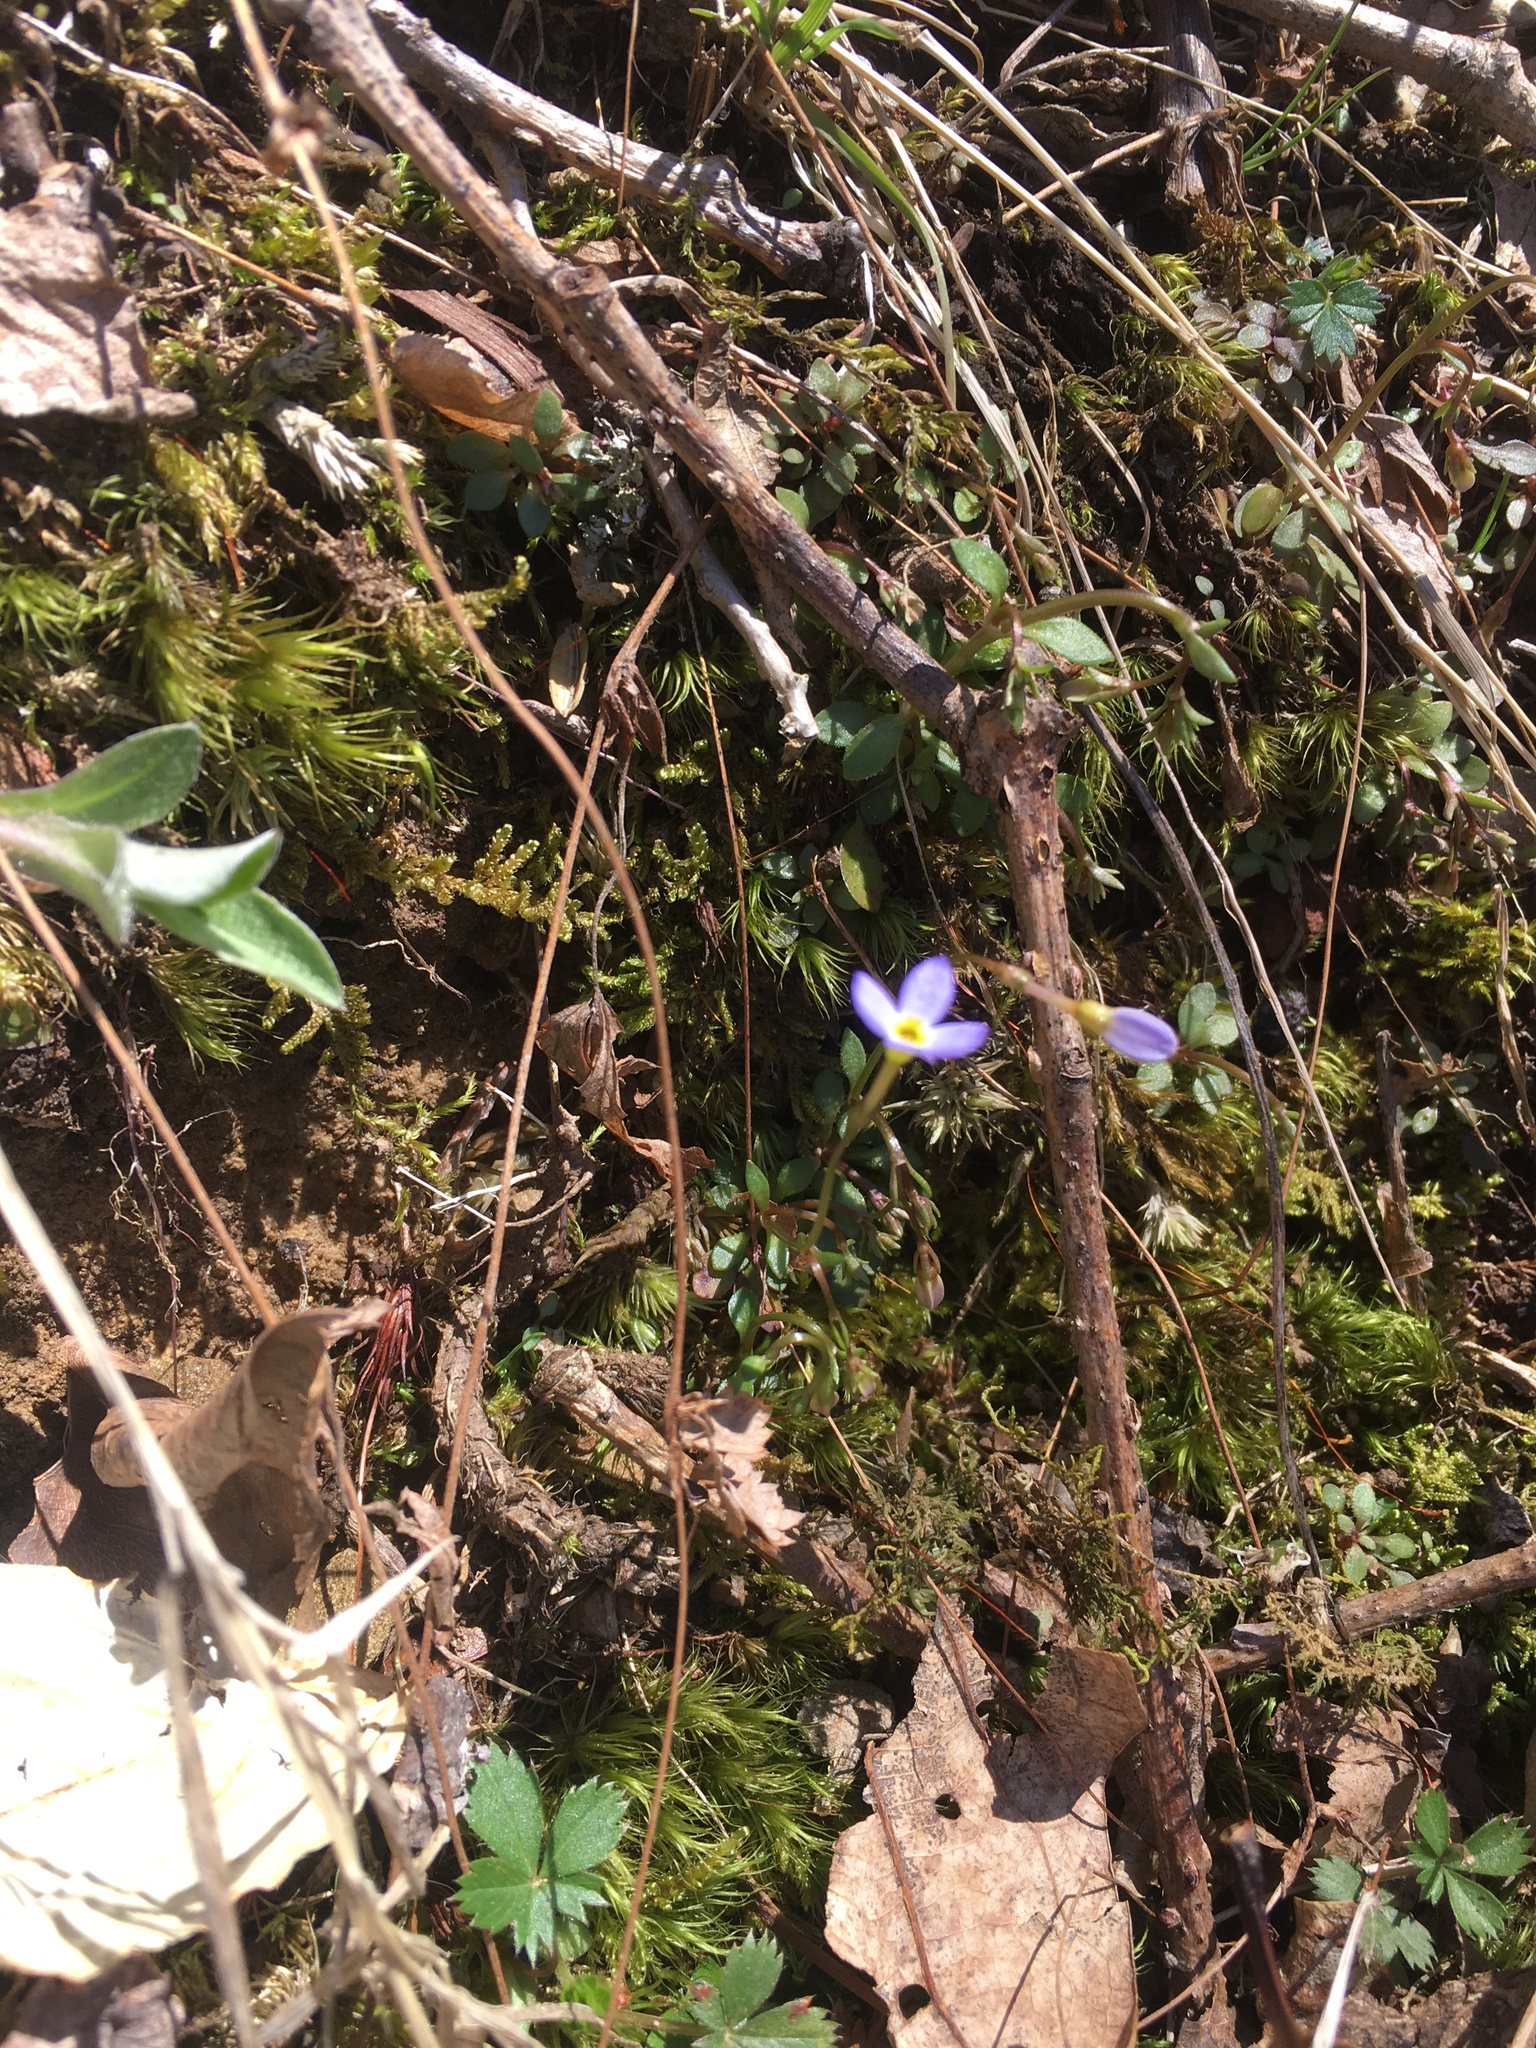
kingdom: Plantae
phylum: Tracheophyta
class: Magnoliopsida
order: Gentianales
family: Rubiaceae
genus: Houstonia
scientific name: Houstonia caerulea
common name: Bluets
